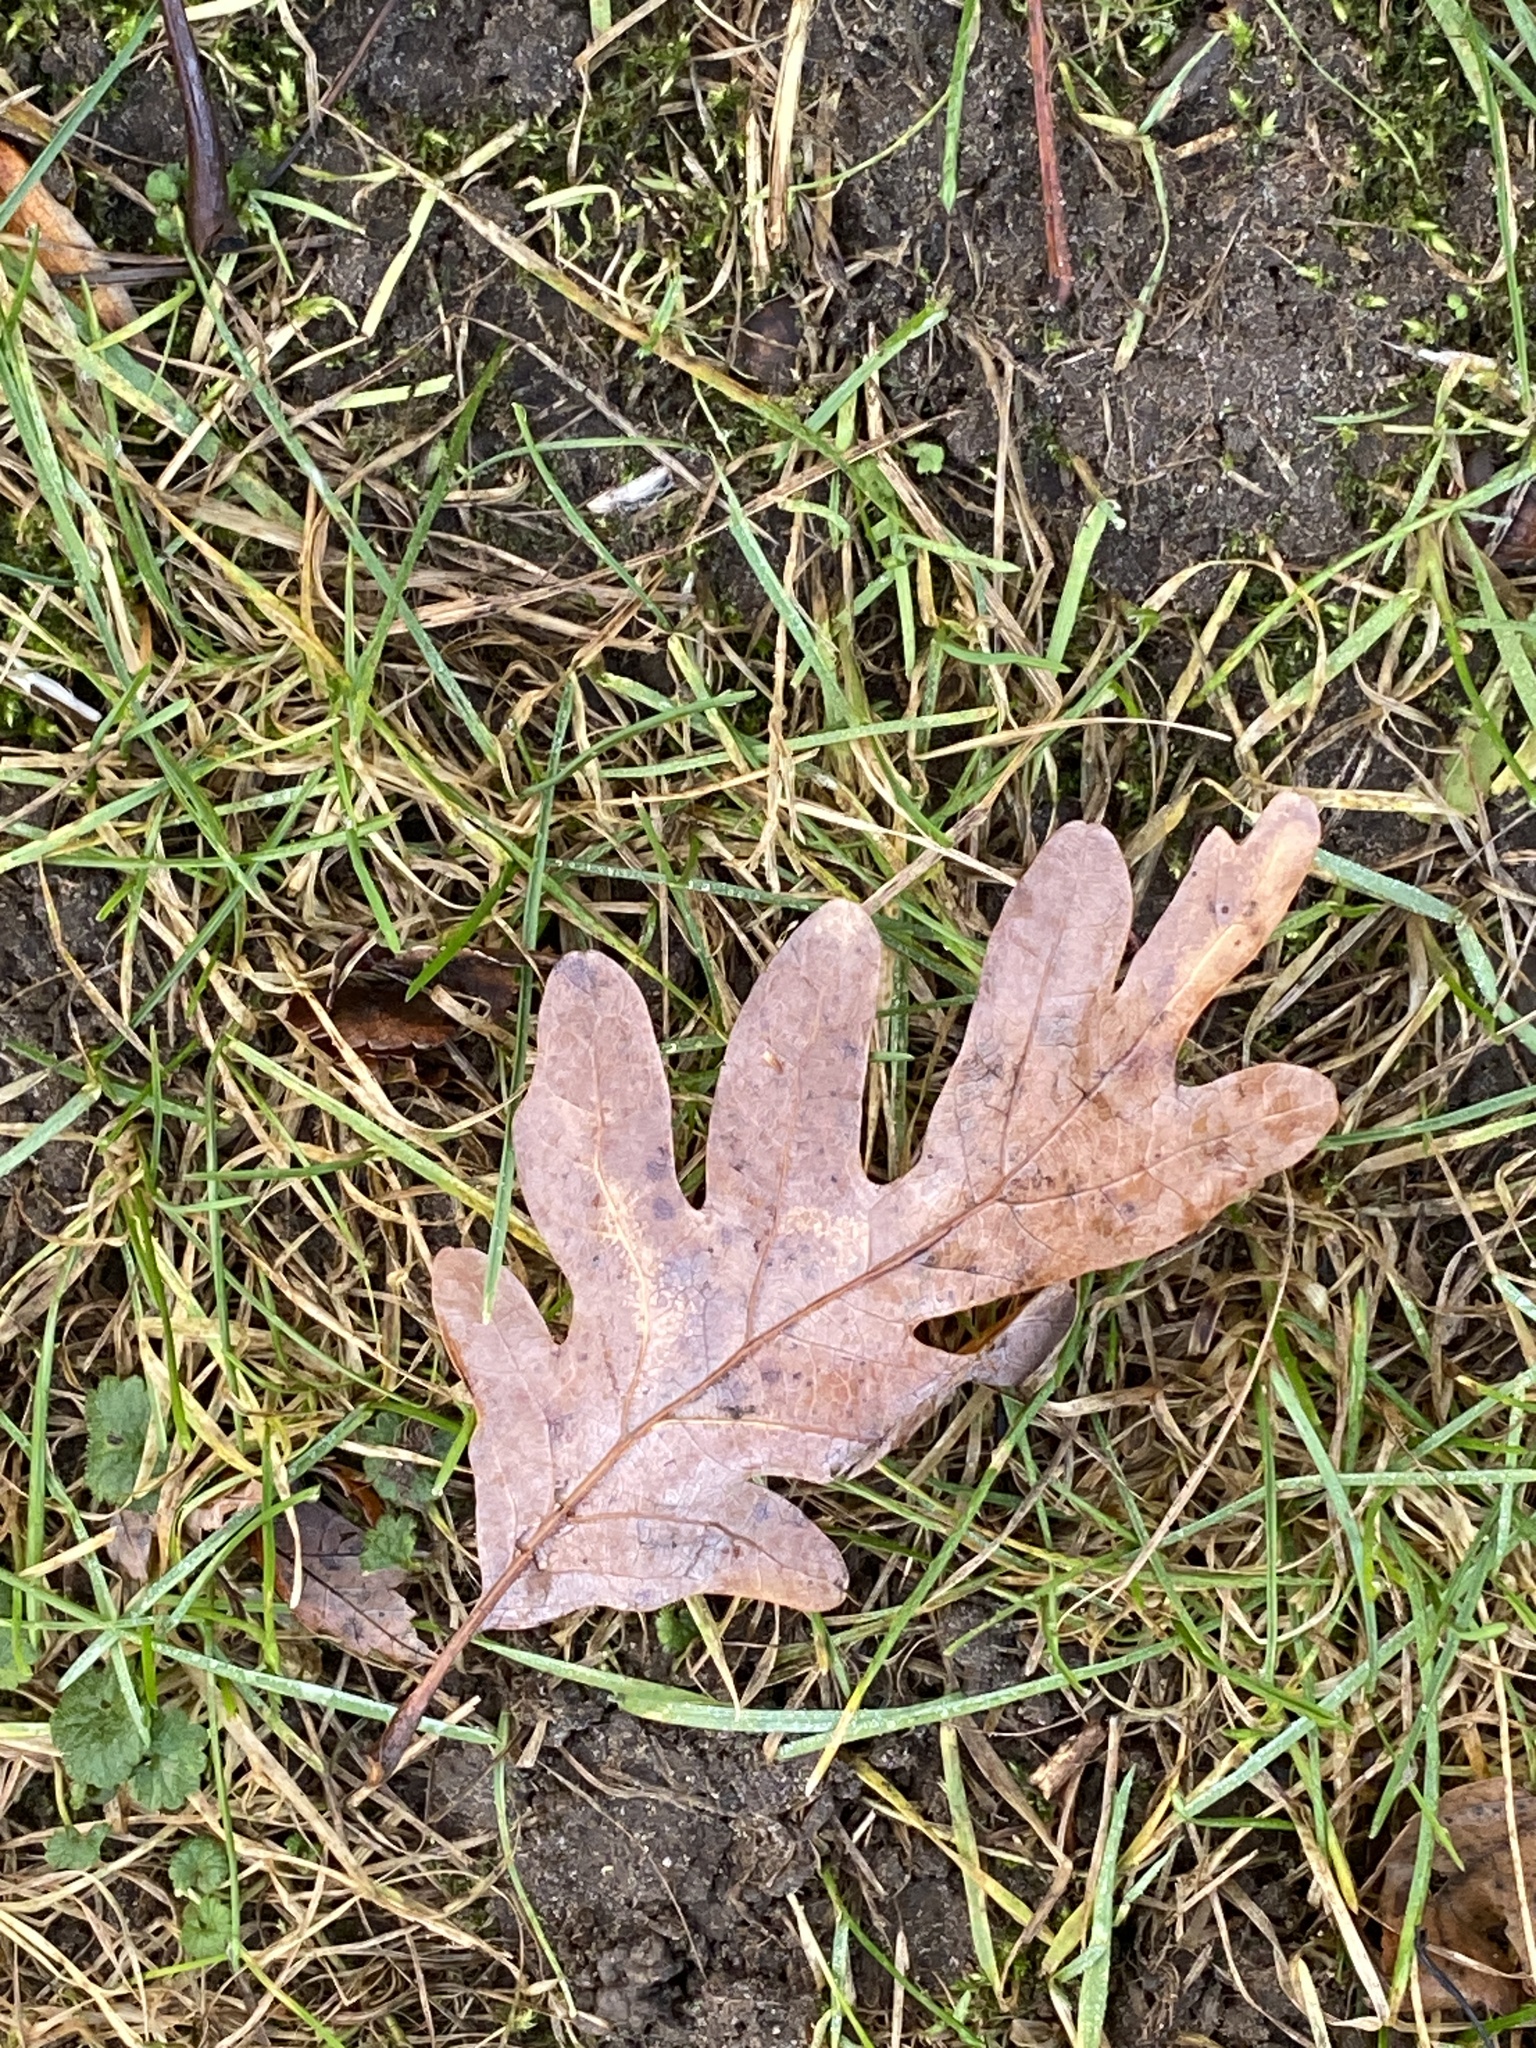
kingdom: Plantae
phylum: Tracheophyta
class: Magnoliopsida
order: Fagales
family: Fagaceae
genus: Quercus
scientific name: Quercus alba
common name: White oak
